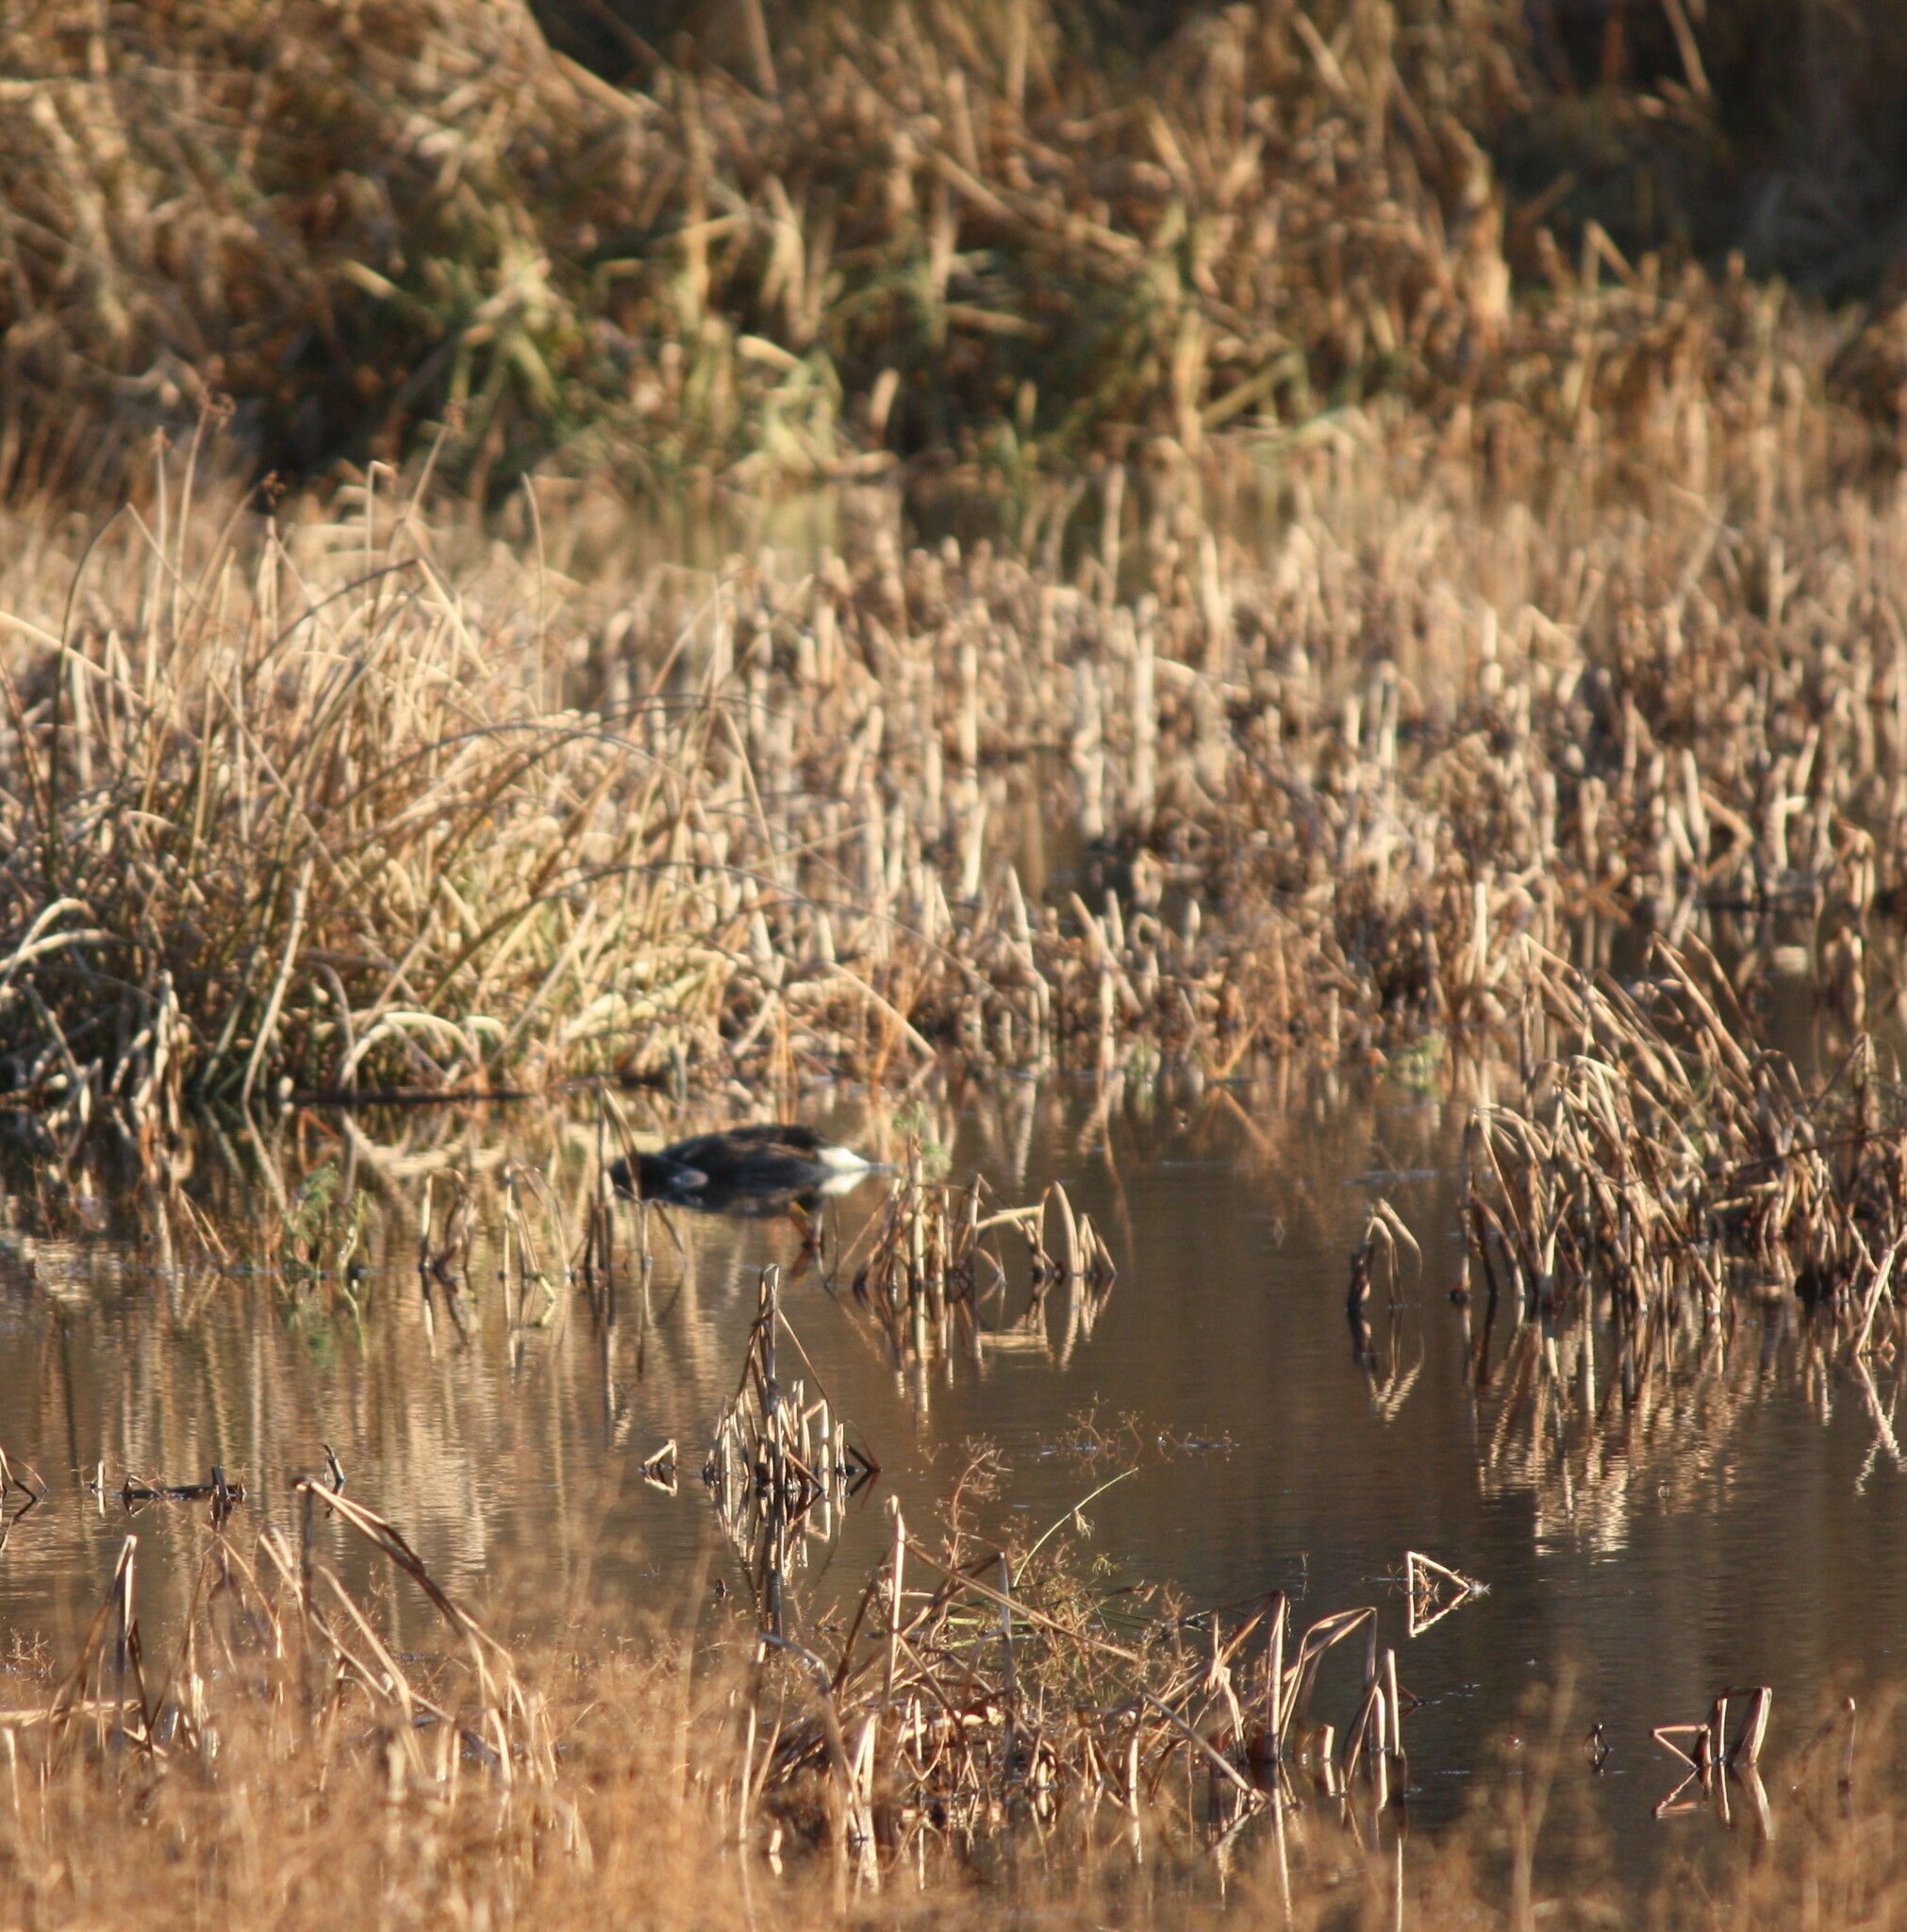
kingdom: Animalia
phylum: Chordata
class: Aves
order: Anseriformes
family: Anatidae
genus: Branta
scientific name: Branta canadensis
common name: Canada goose
